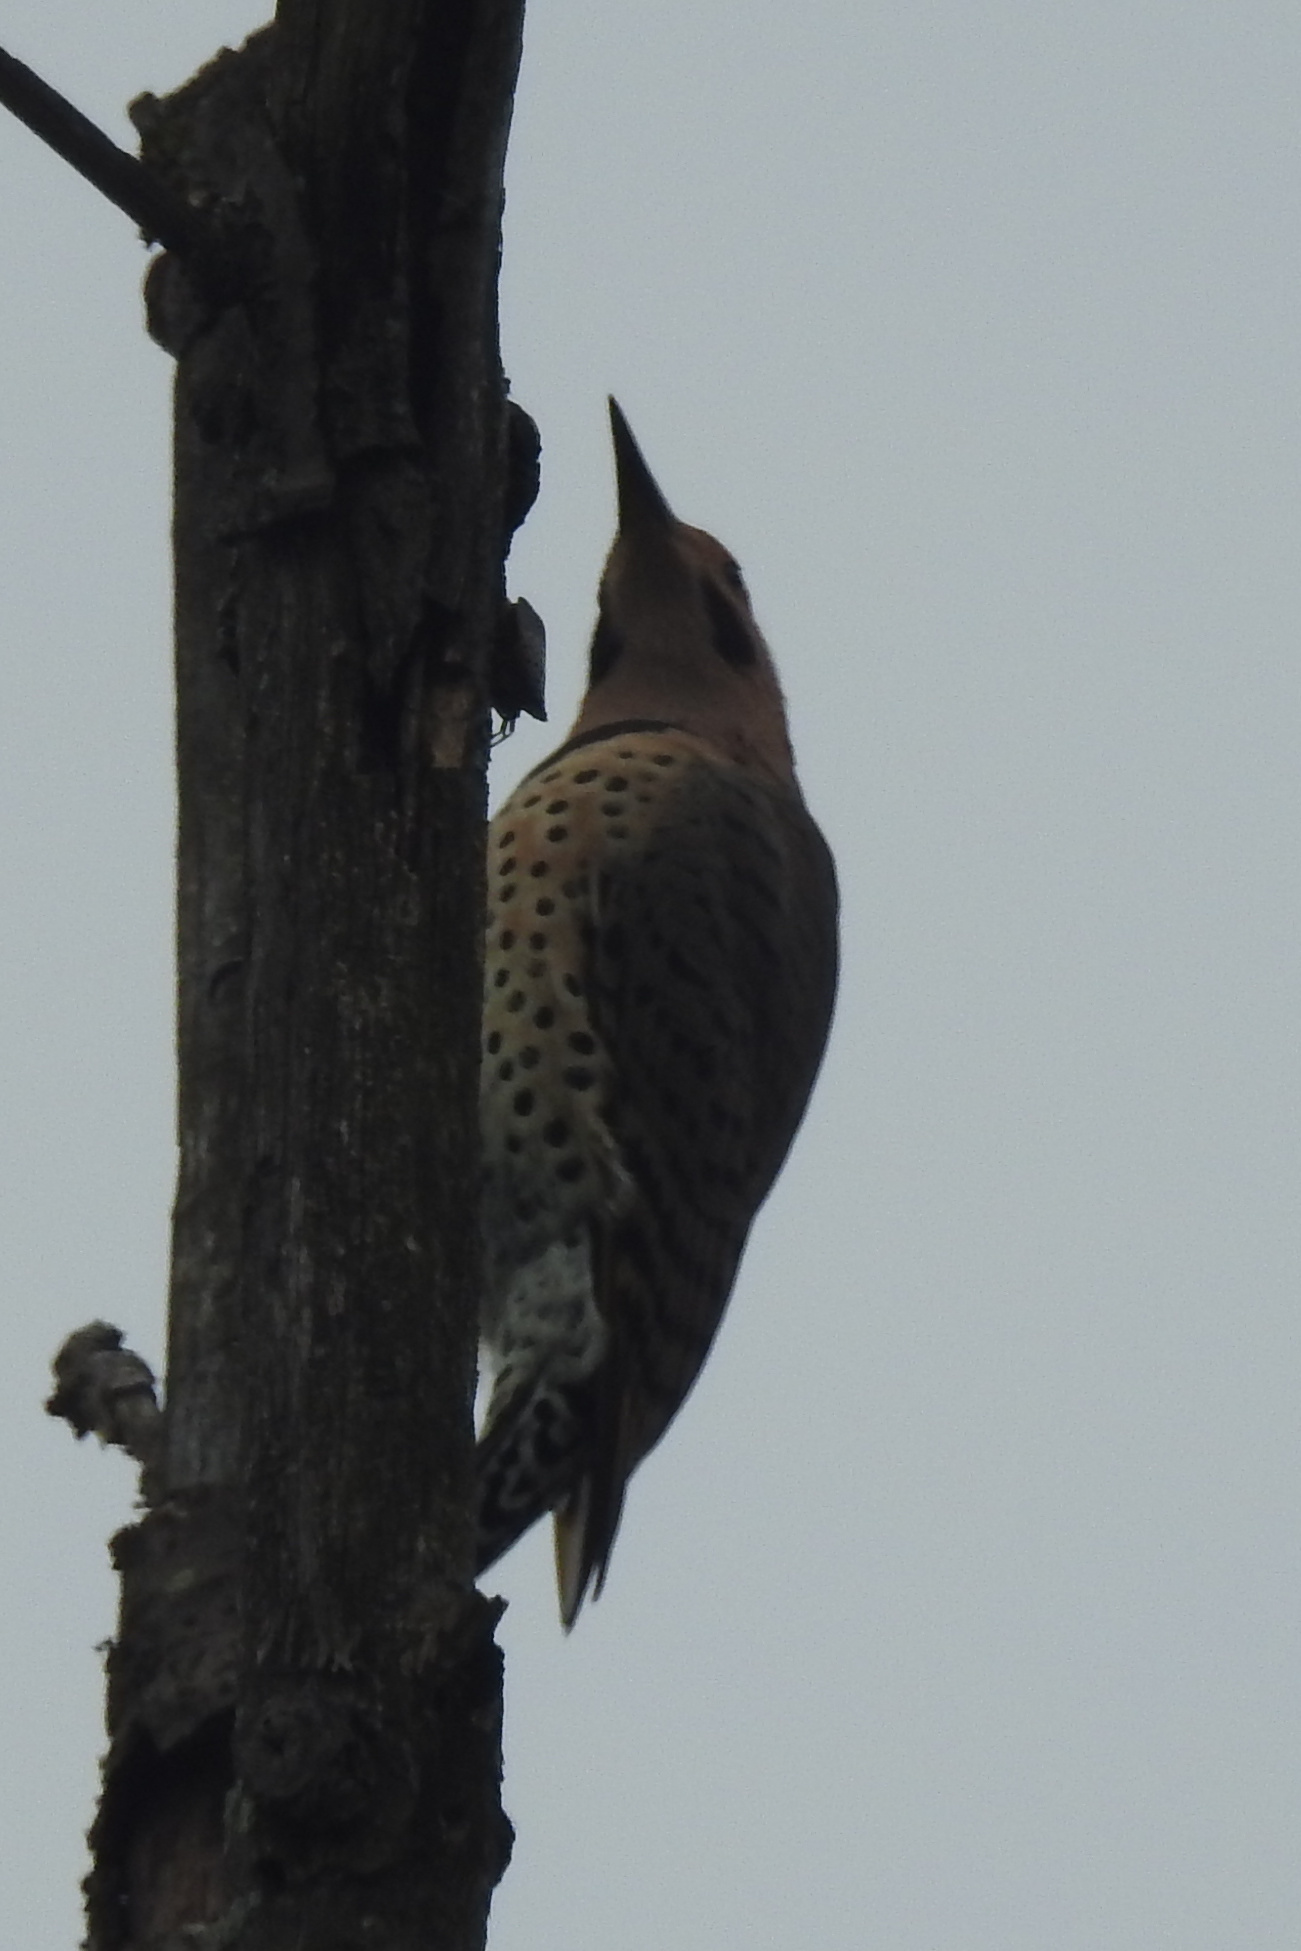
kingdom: Animalia
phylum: Chordata
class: Aves
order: Piciformes
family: Picidae
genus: Colaptes
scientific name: Colaptes auratus
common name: Northern flicker
